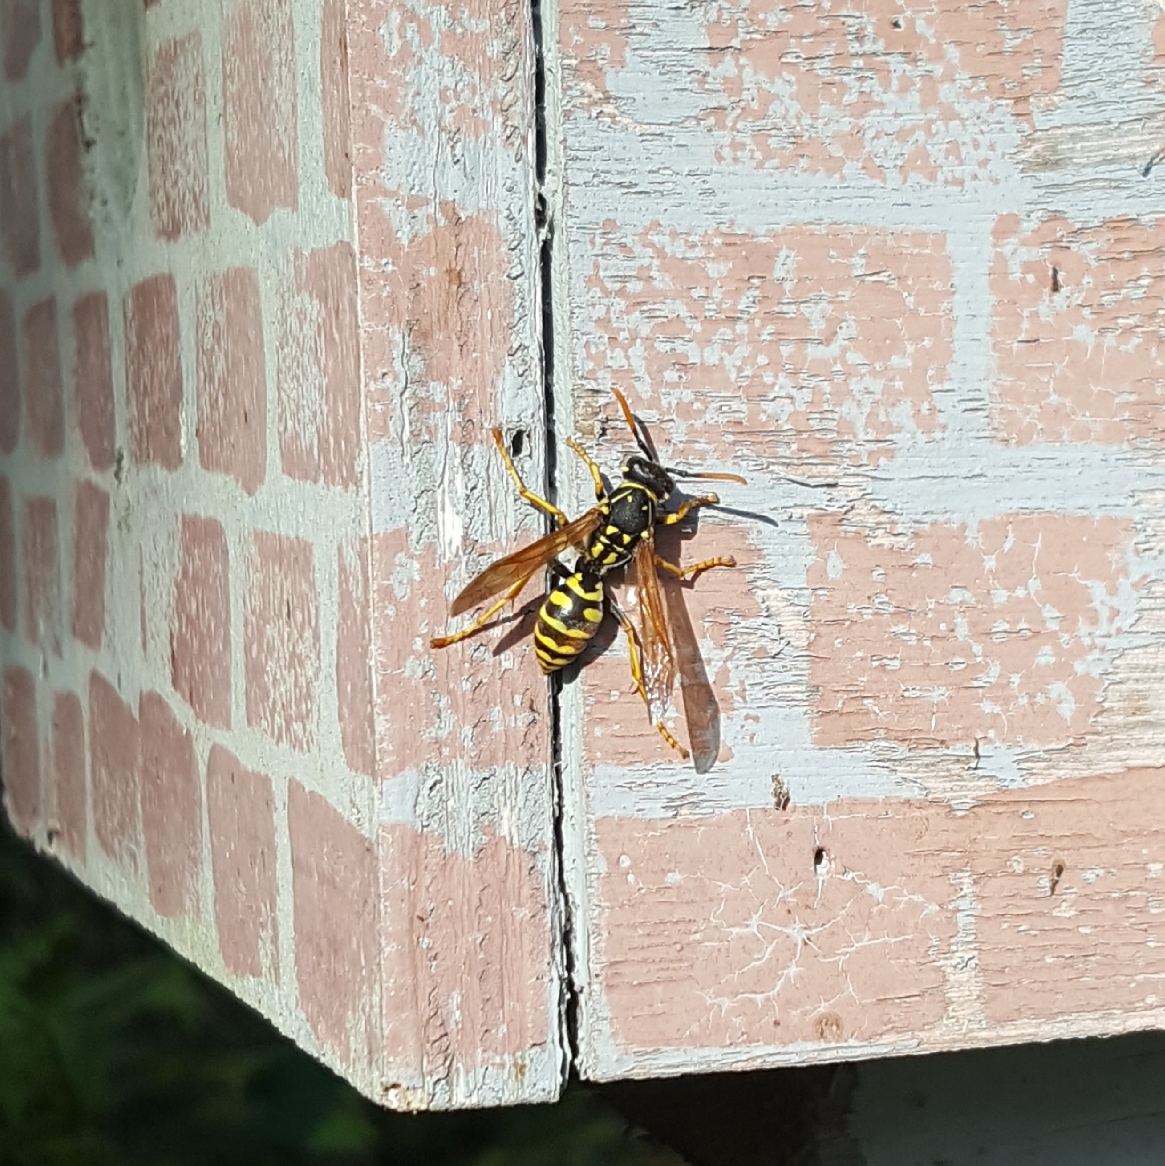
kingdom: Animalia
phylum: Arthropoda
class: Insecta
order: Hymenoptera
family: Eumenidae
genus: Polistes
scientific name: Polistes dominula
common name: Paper wasp
